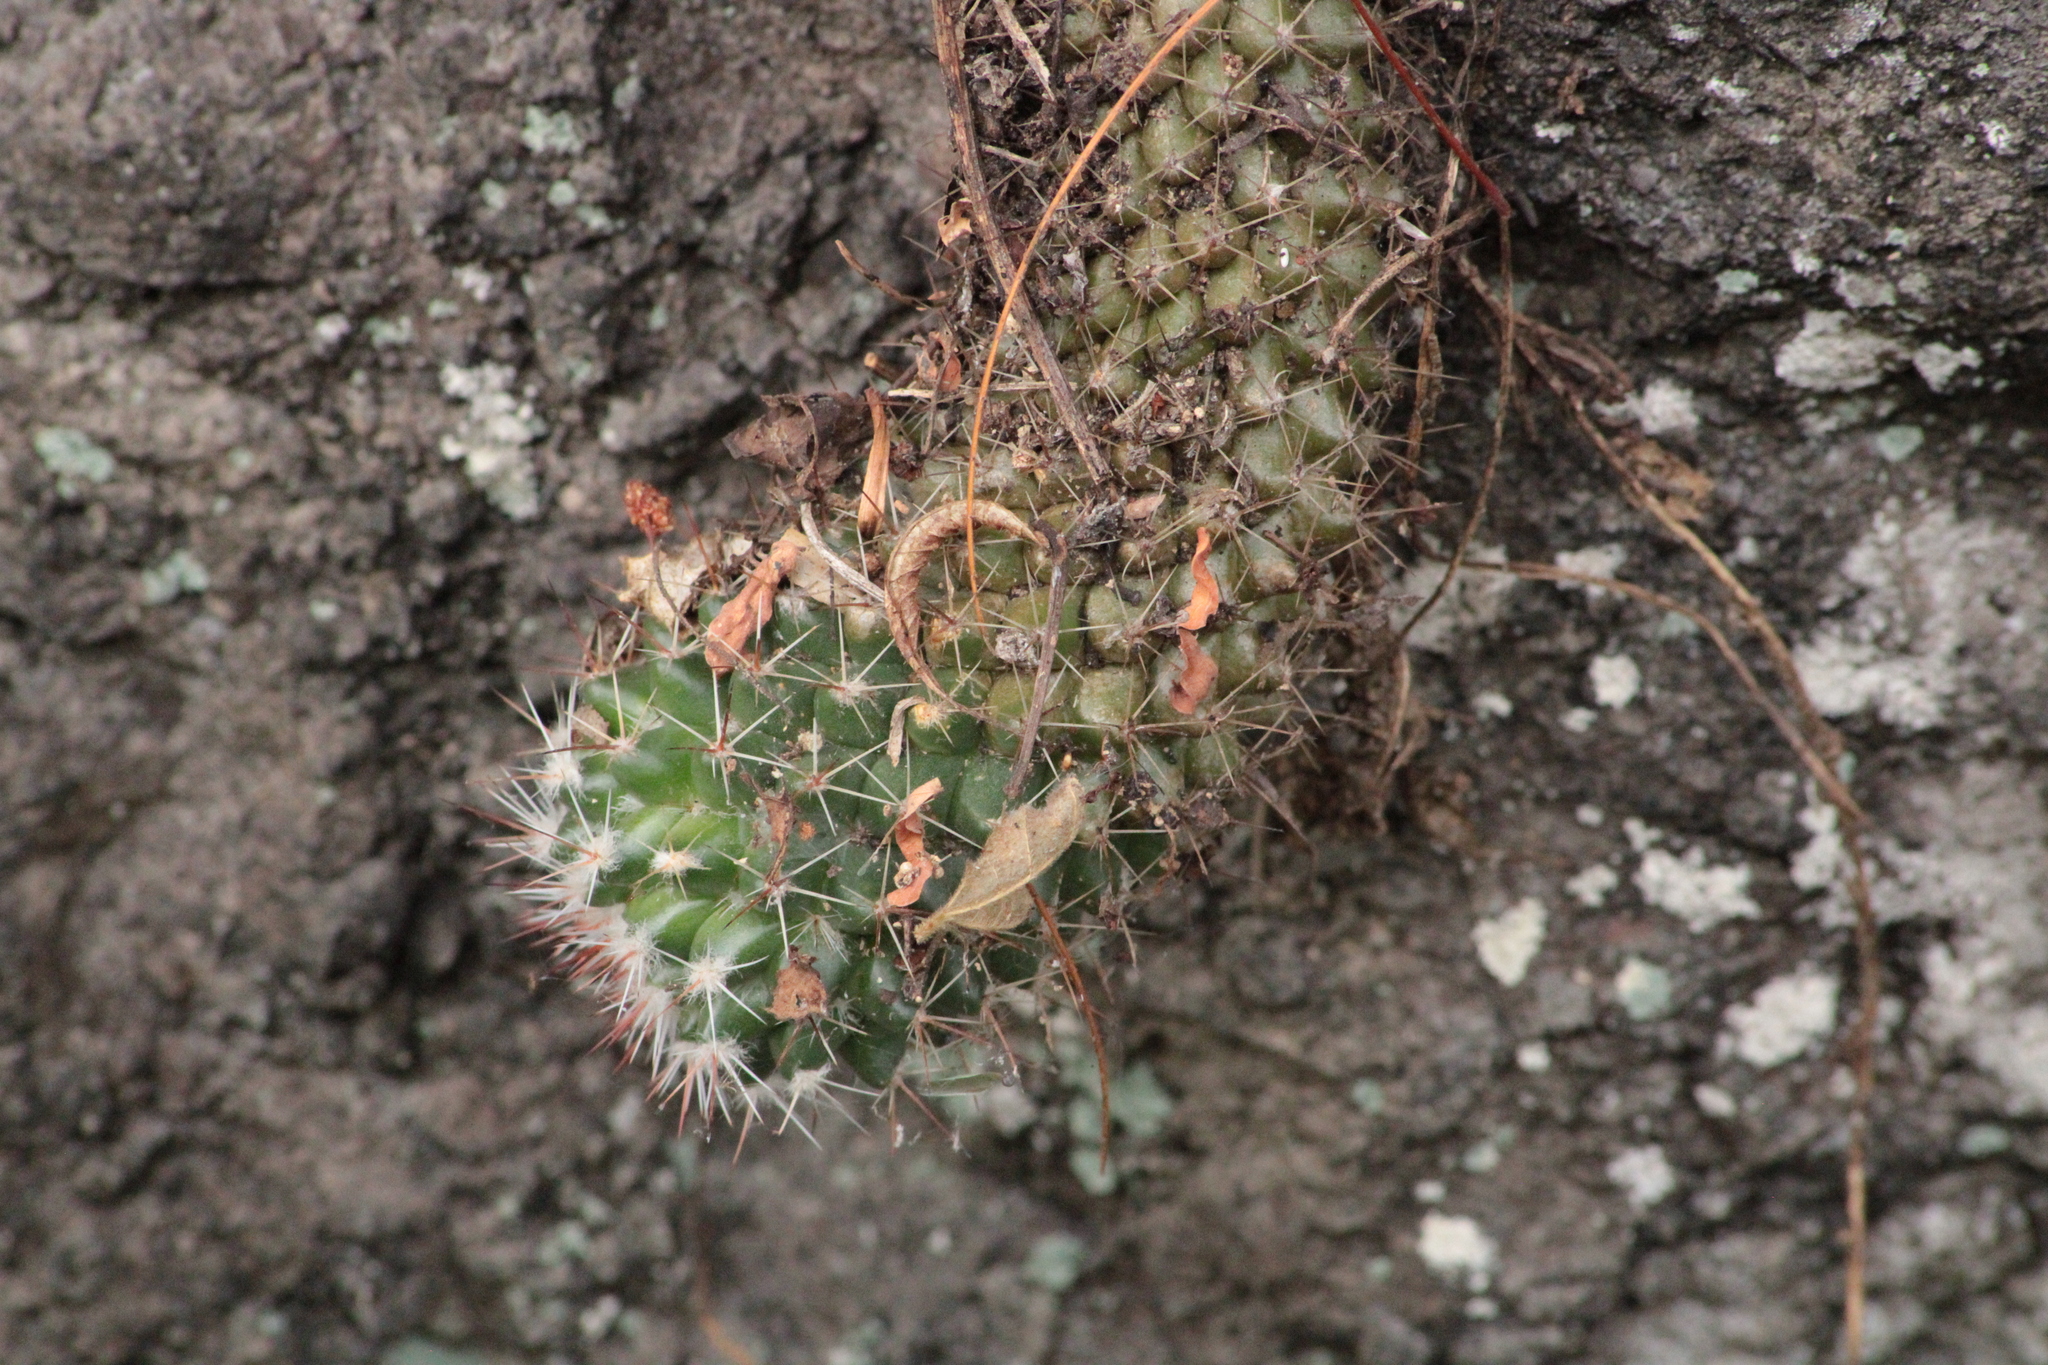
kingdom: Plantae
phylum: Tracheophyta
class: Magnoliopsida
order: Caryophyllales
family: Cactaceae
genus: Mammillaria
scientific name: Mammillaria scrippsiana
